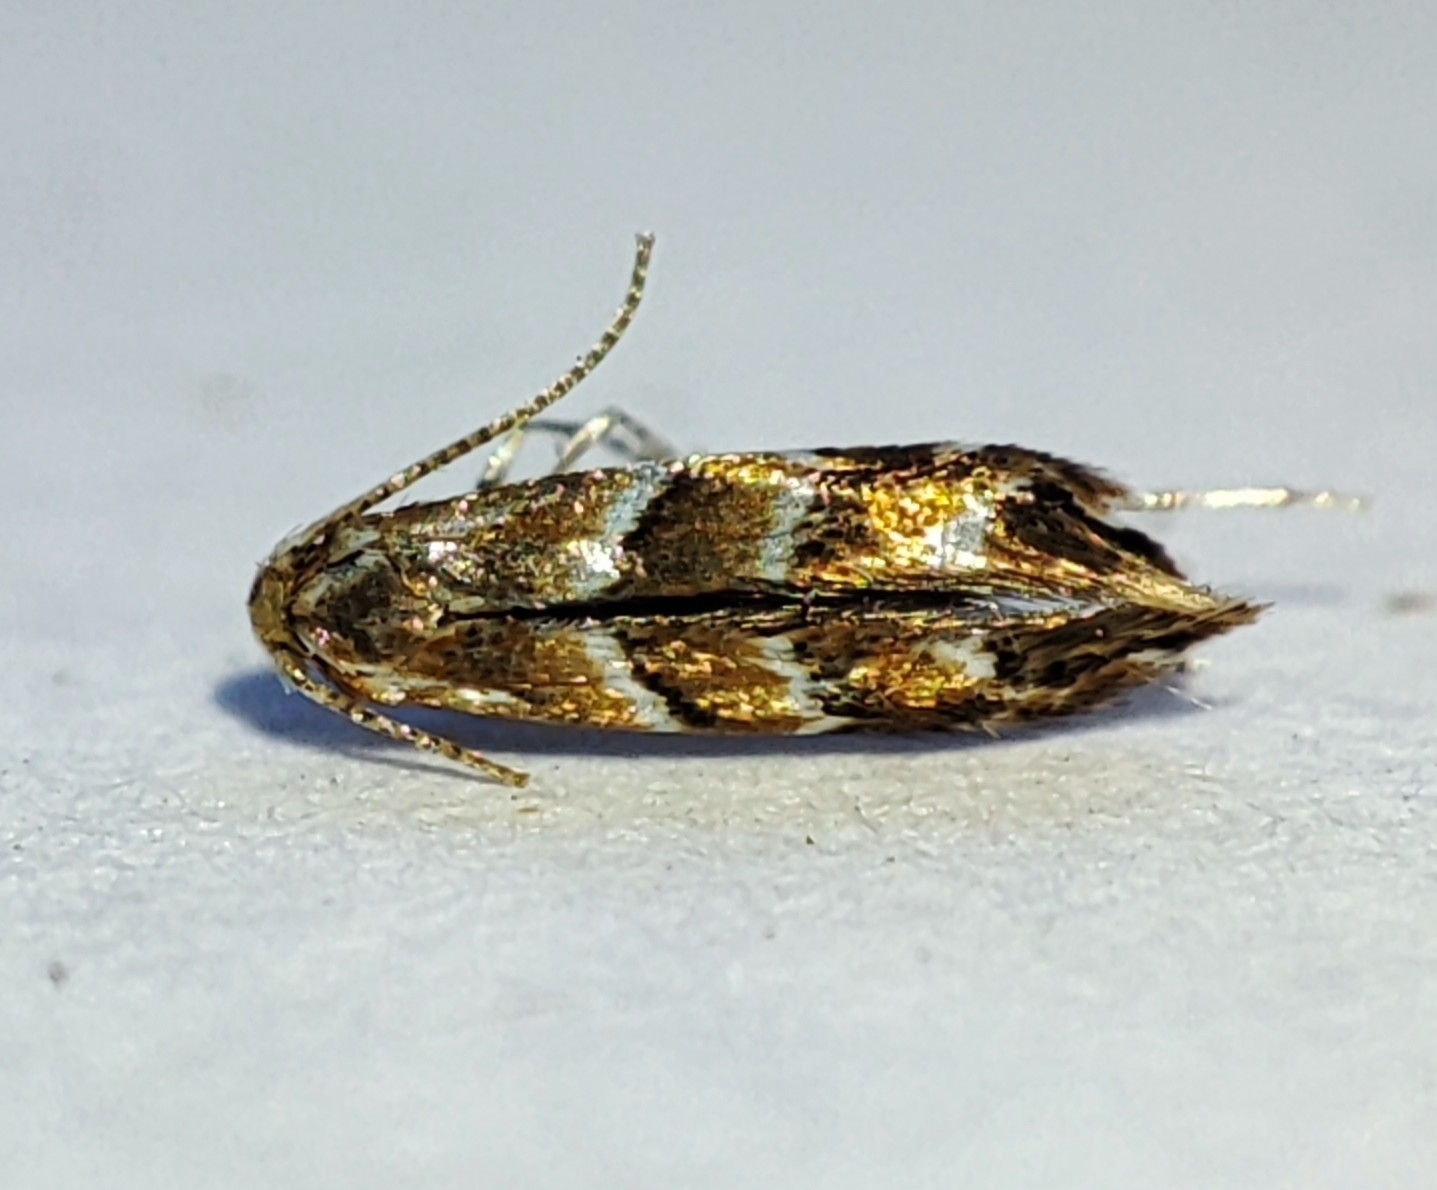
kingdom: Animalia
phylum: Arthropoda
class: Insecta
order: Lepidoptera
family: Gracillariidae
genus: Cameraria
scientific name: Cameraria ohridella
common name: Horse-chestnut leaf-miner
